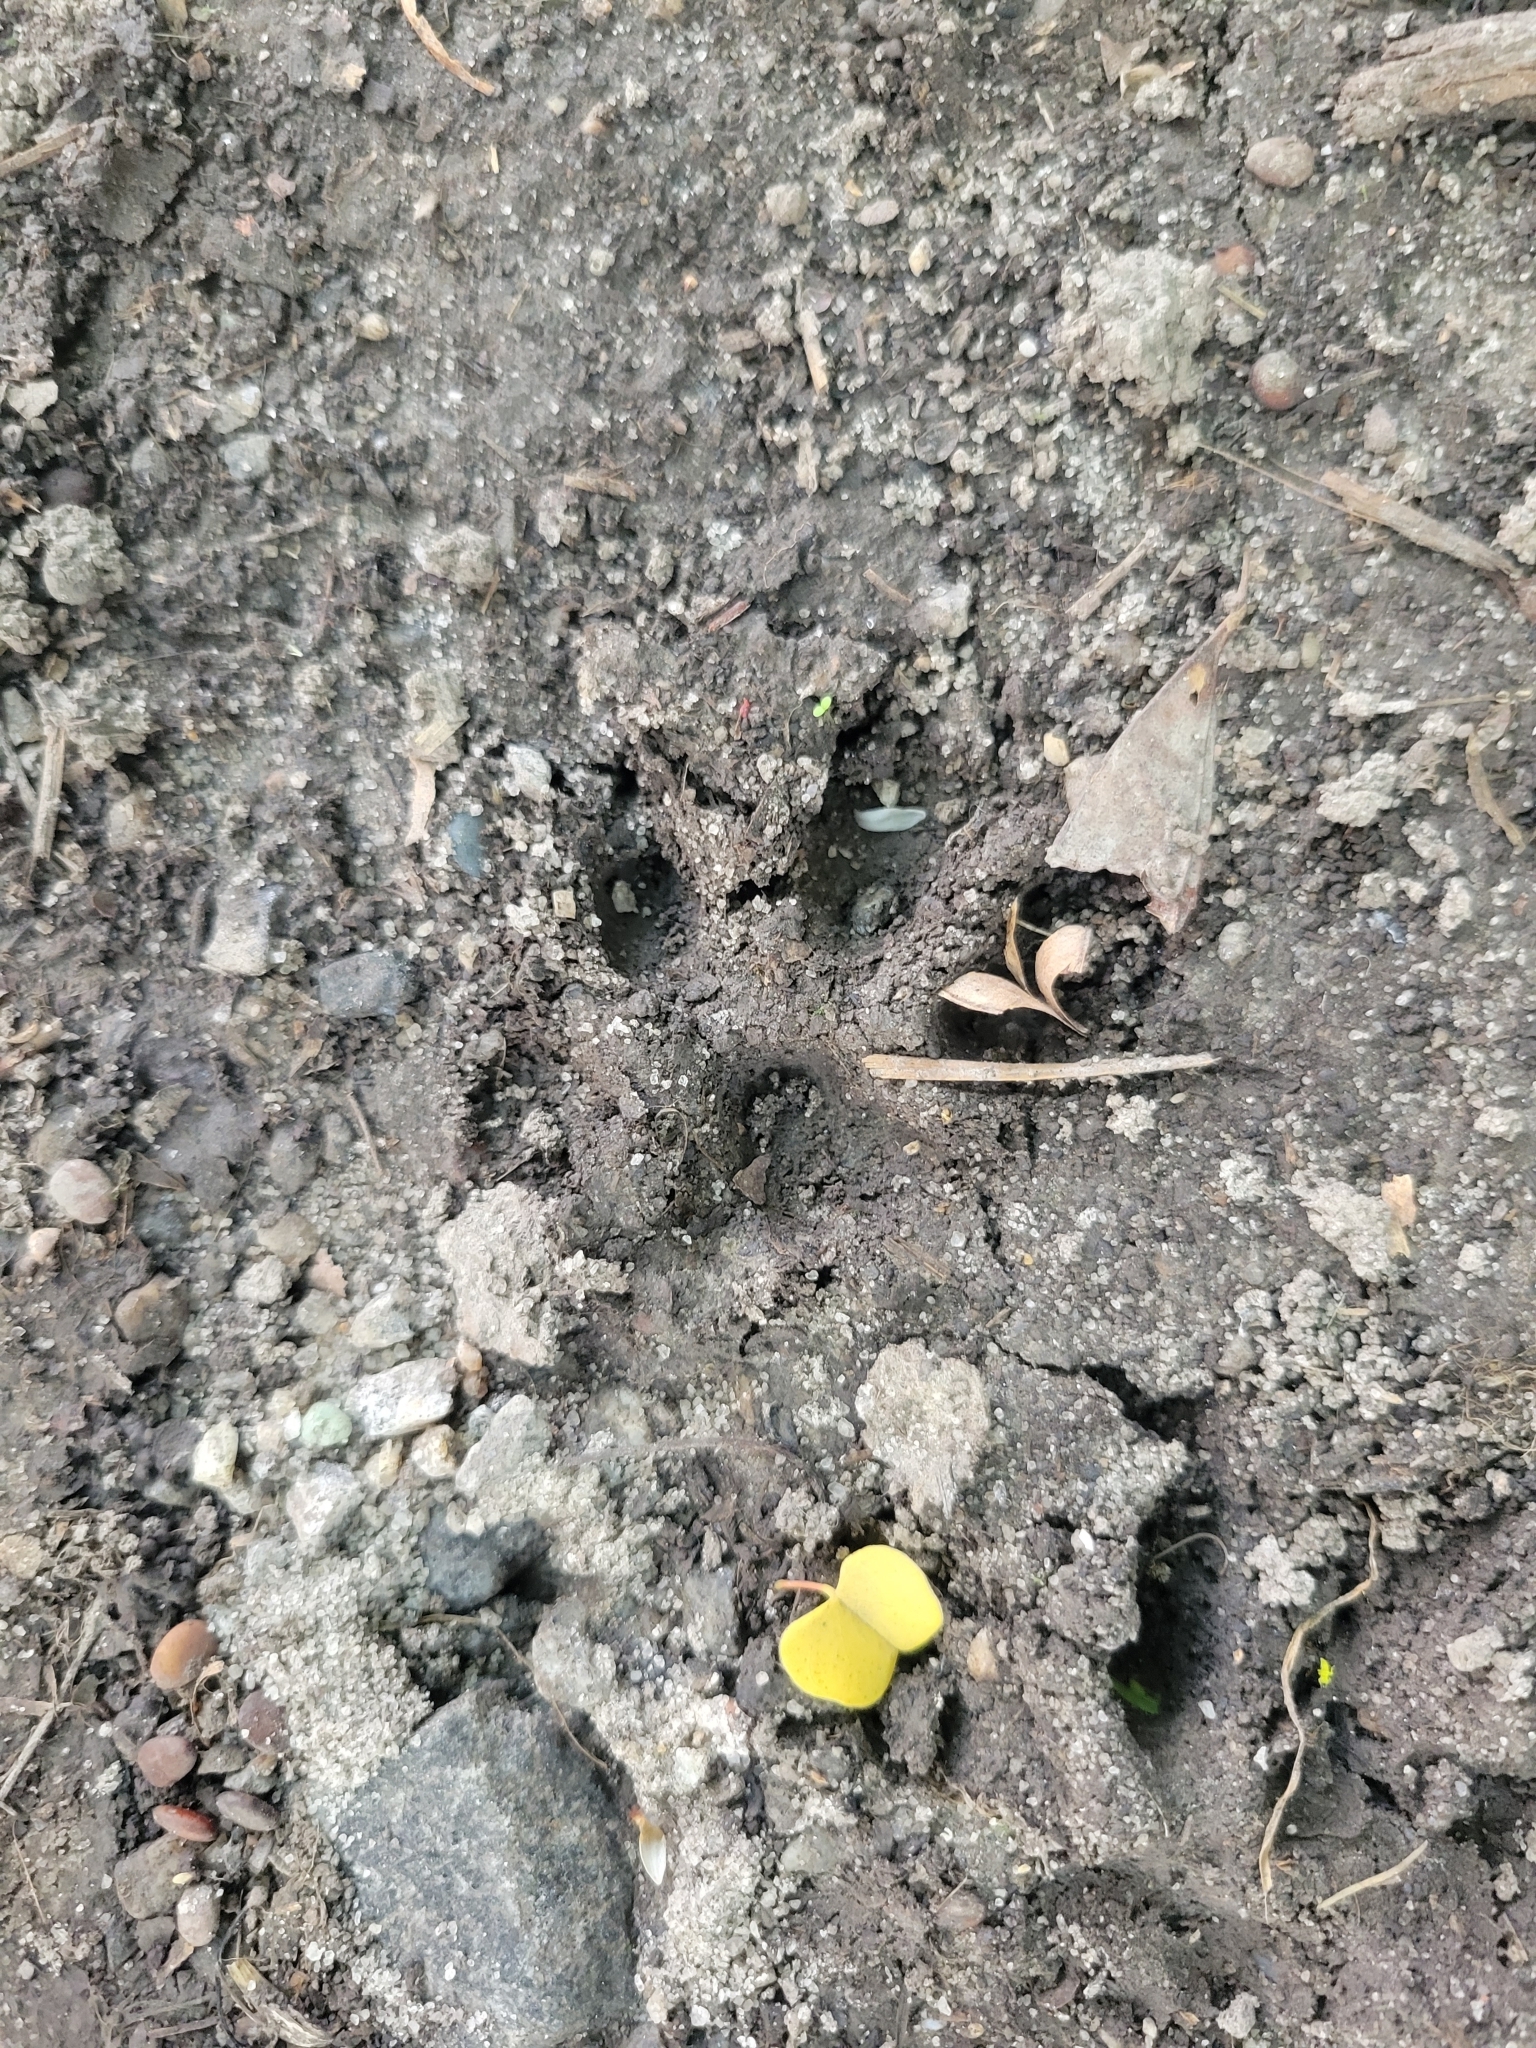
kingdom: Animalia
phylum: Chordata
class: Mammalia
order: Carnivora
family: Felidae
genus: Felis
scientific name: Felis catus
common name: Domestic cat
